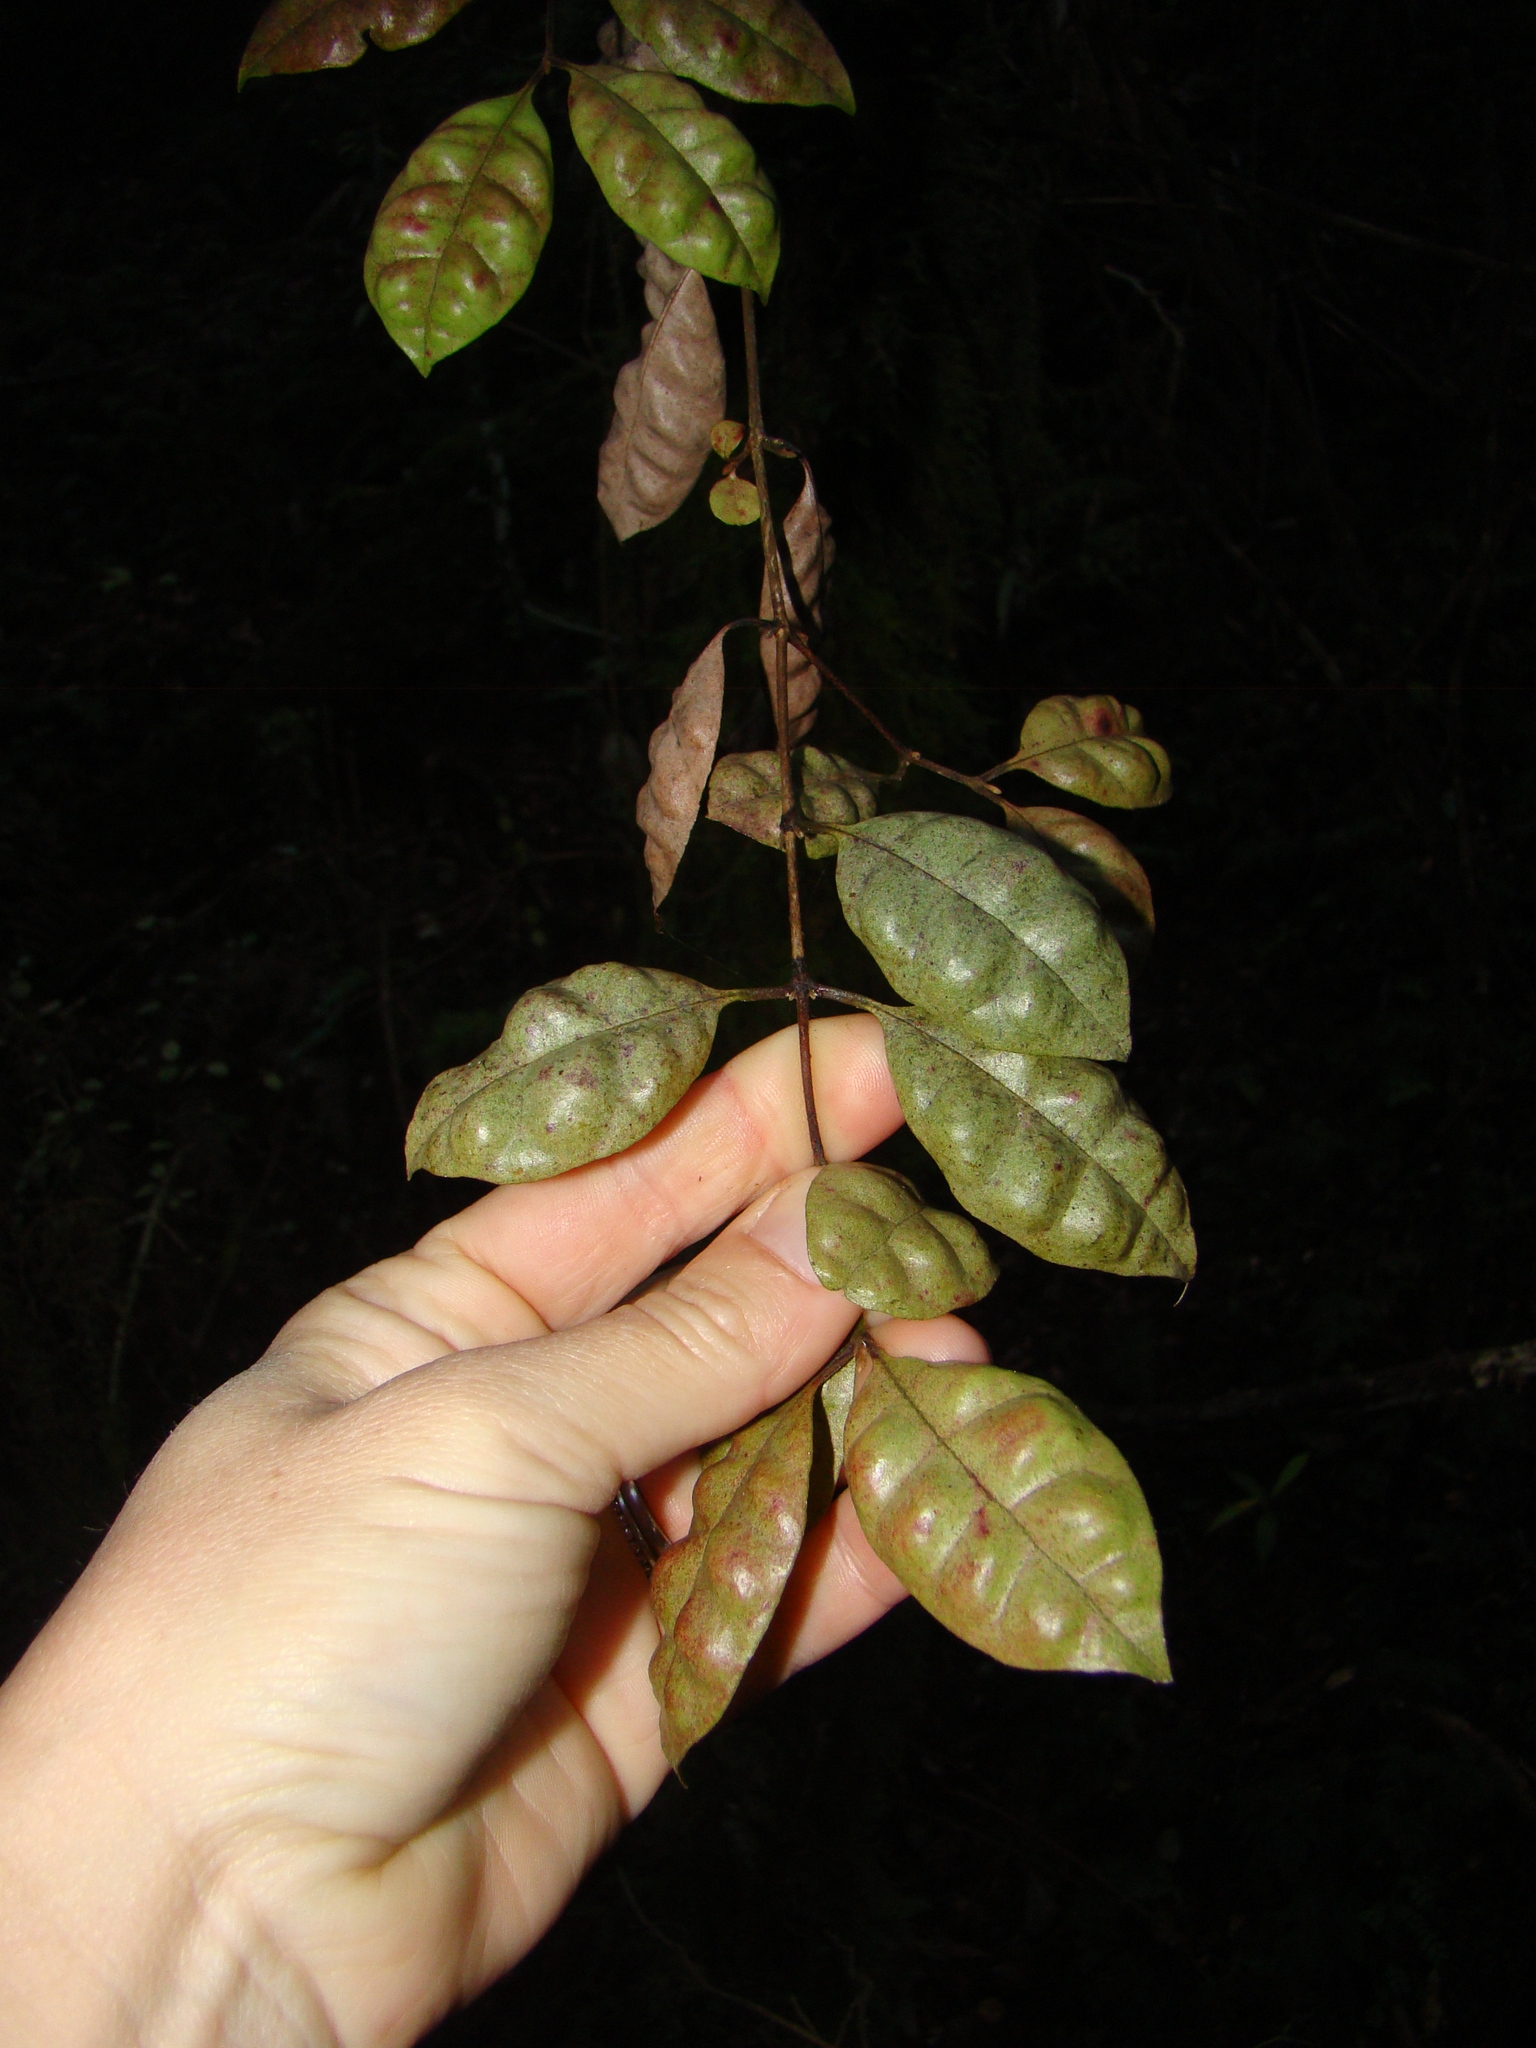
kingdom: Plantae
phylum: Tracheophyta
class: Magnoliopsida
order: Myrtales
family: Myrtaceae
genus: Lophomyrtus
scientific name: Lophomyrtus bullata
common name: Rama rama
